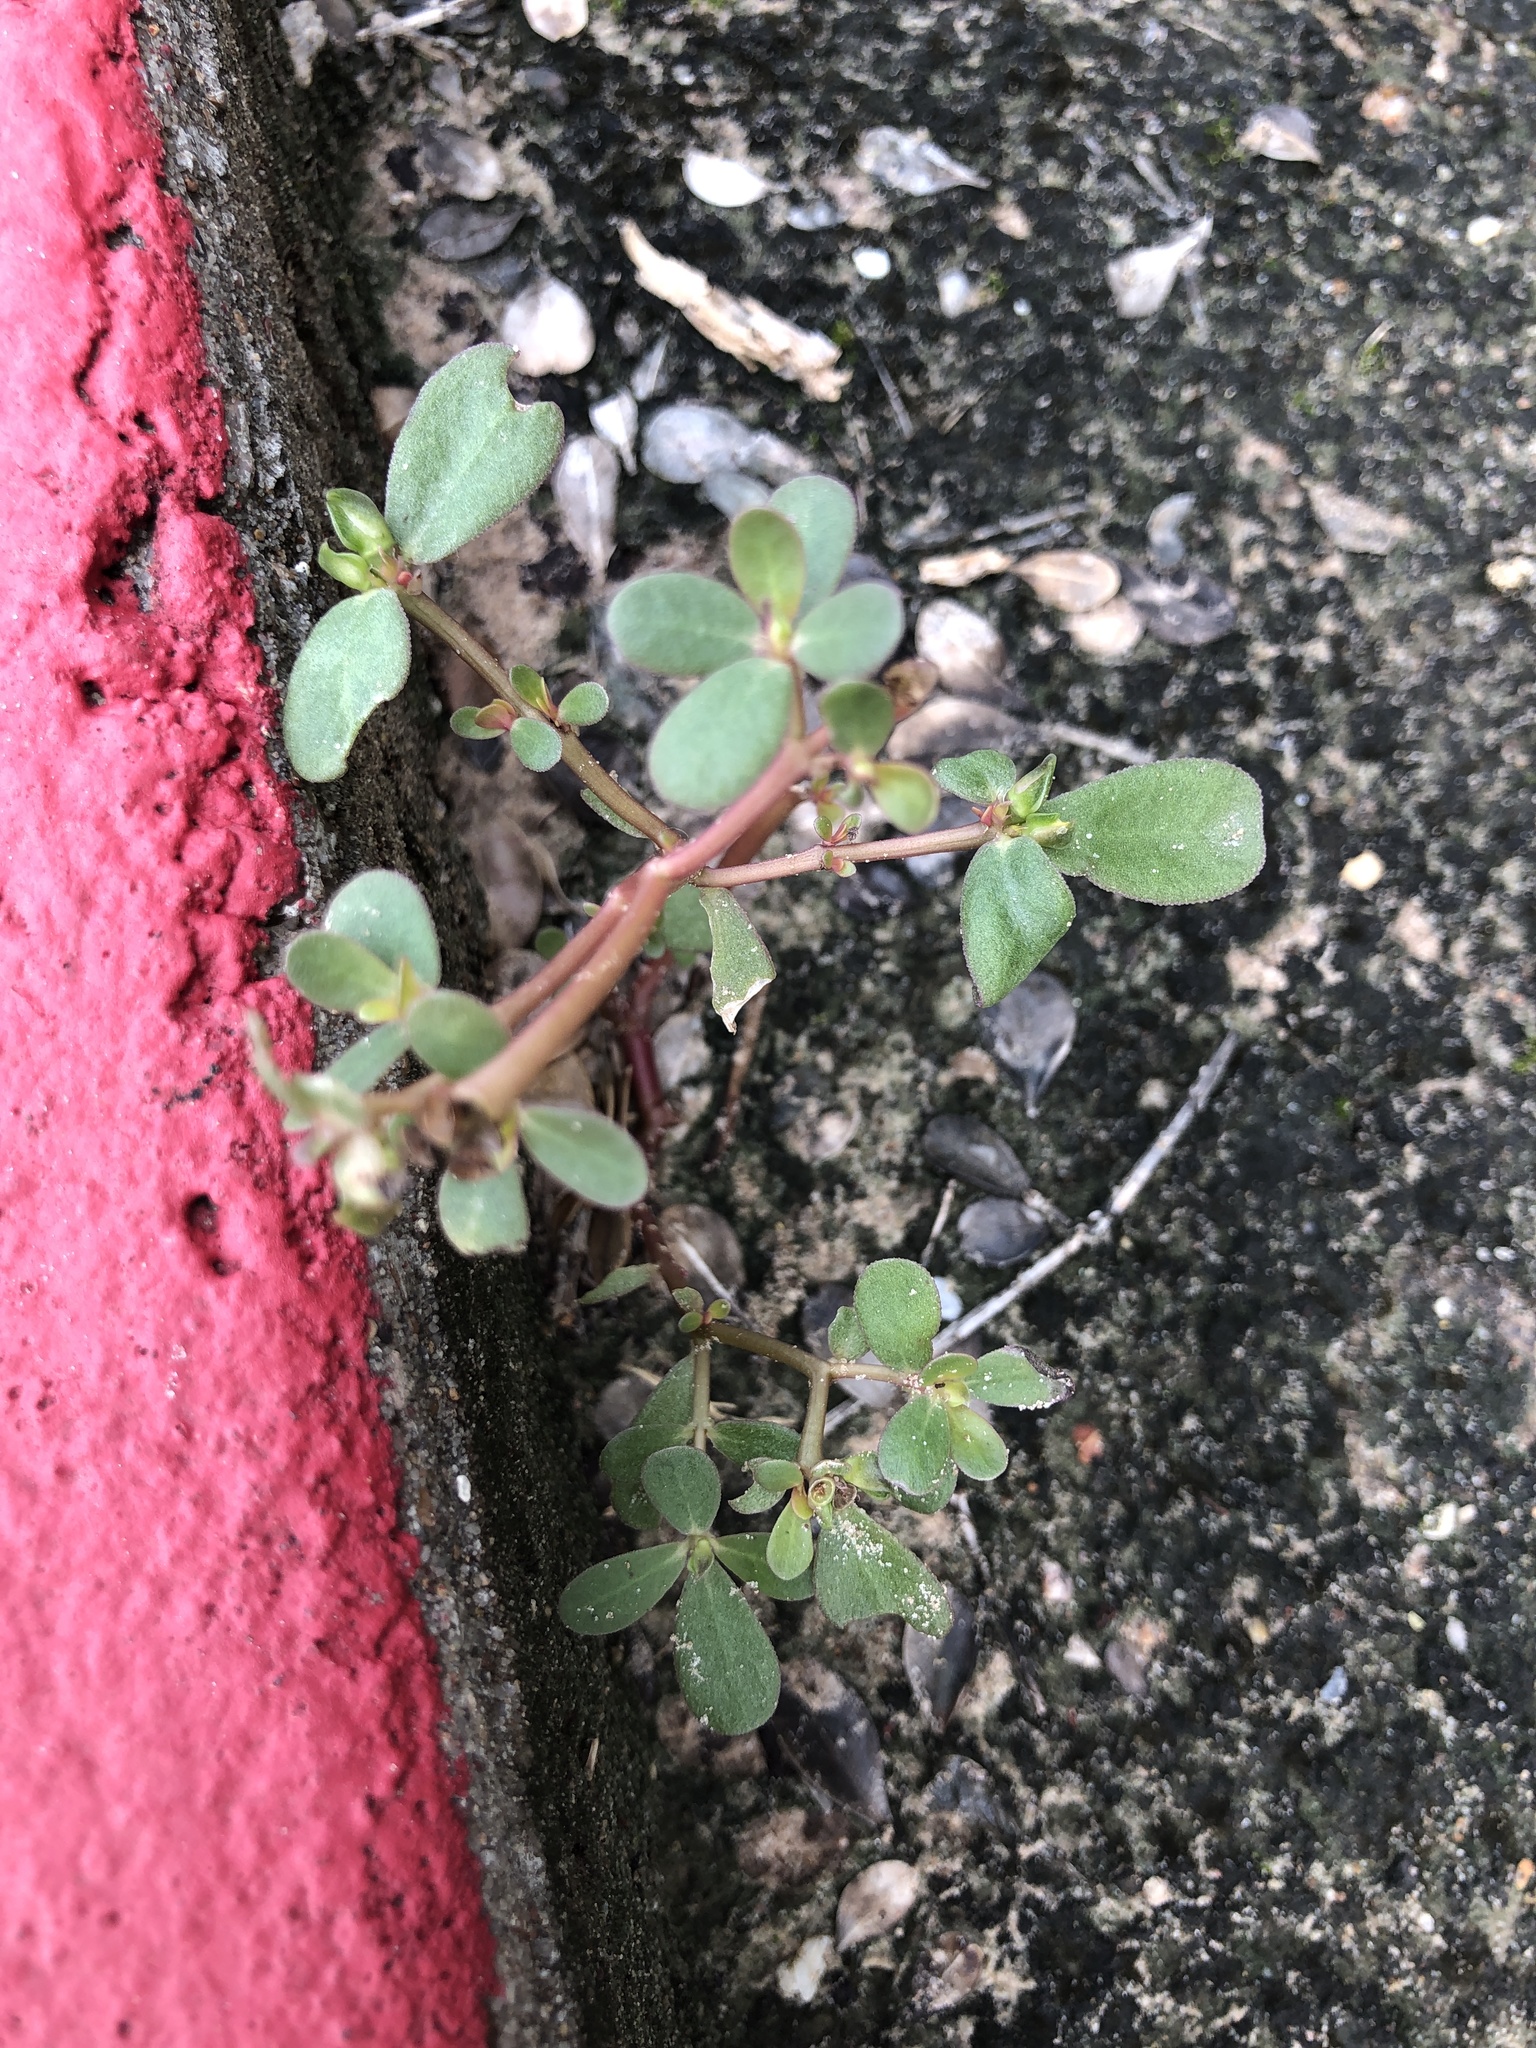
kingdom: Plantae
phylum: Tracheophyta
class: Magnoliopsida
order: Caryophyllales
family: Portulacaceae
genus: Portulaca
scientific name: Portulaca oleracea
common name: Common purslane
